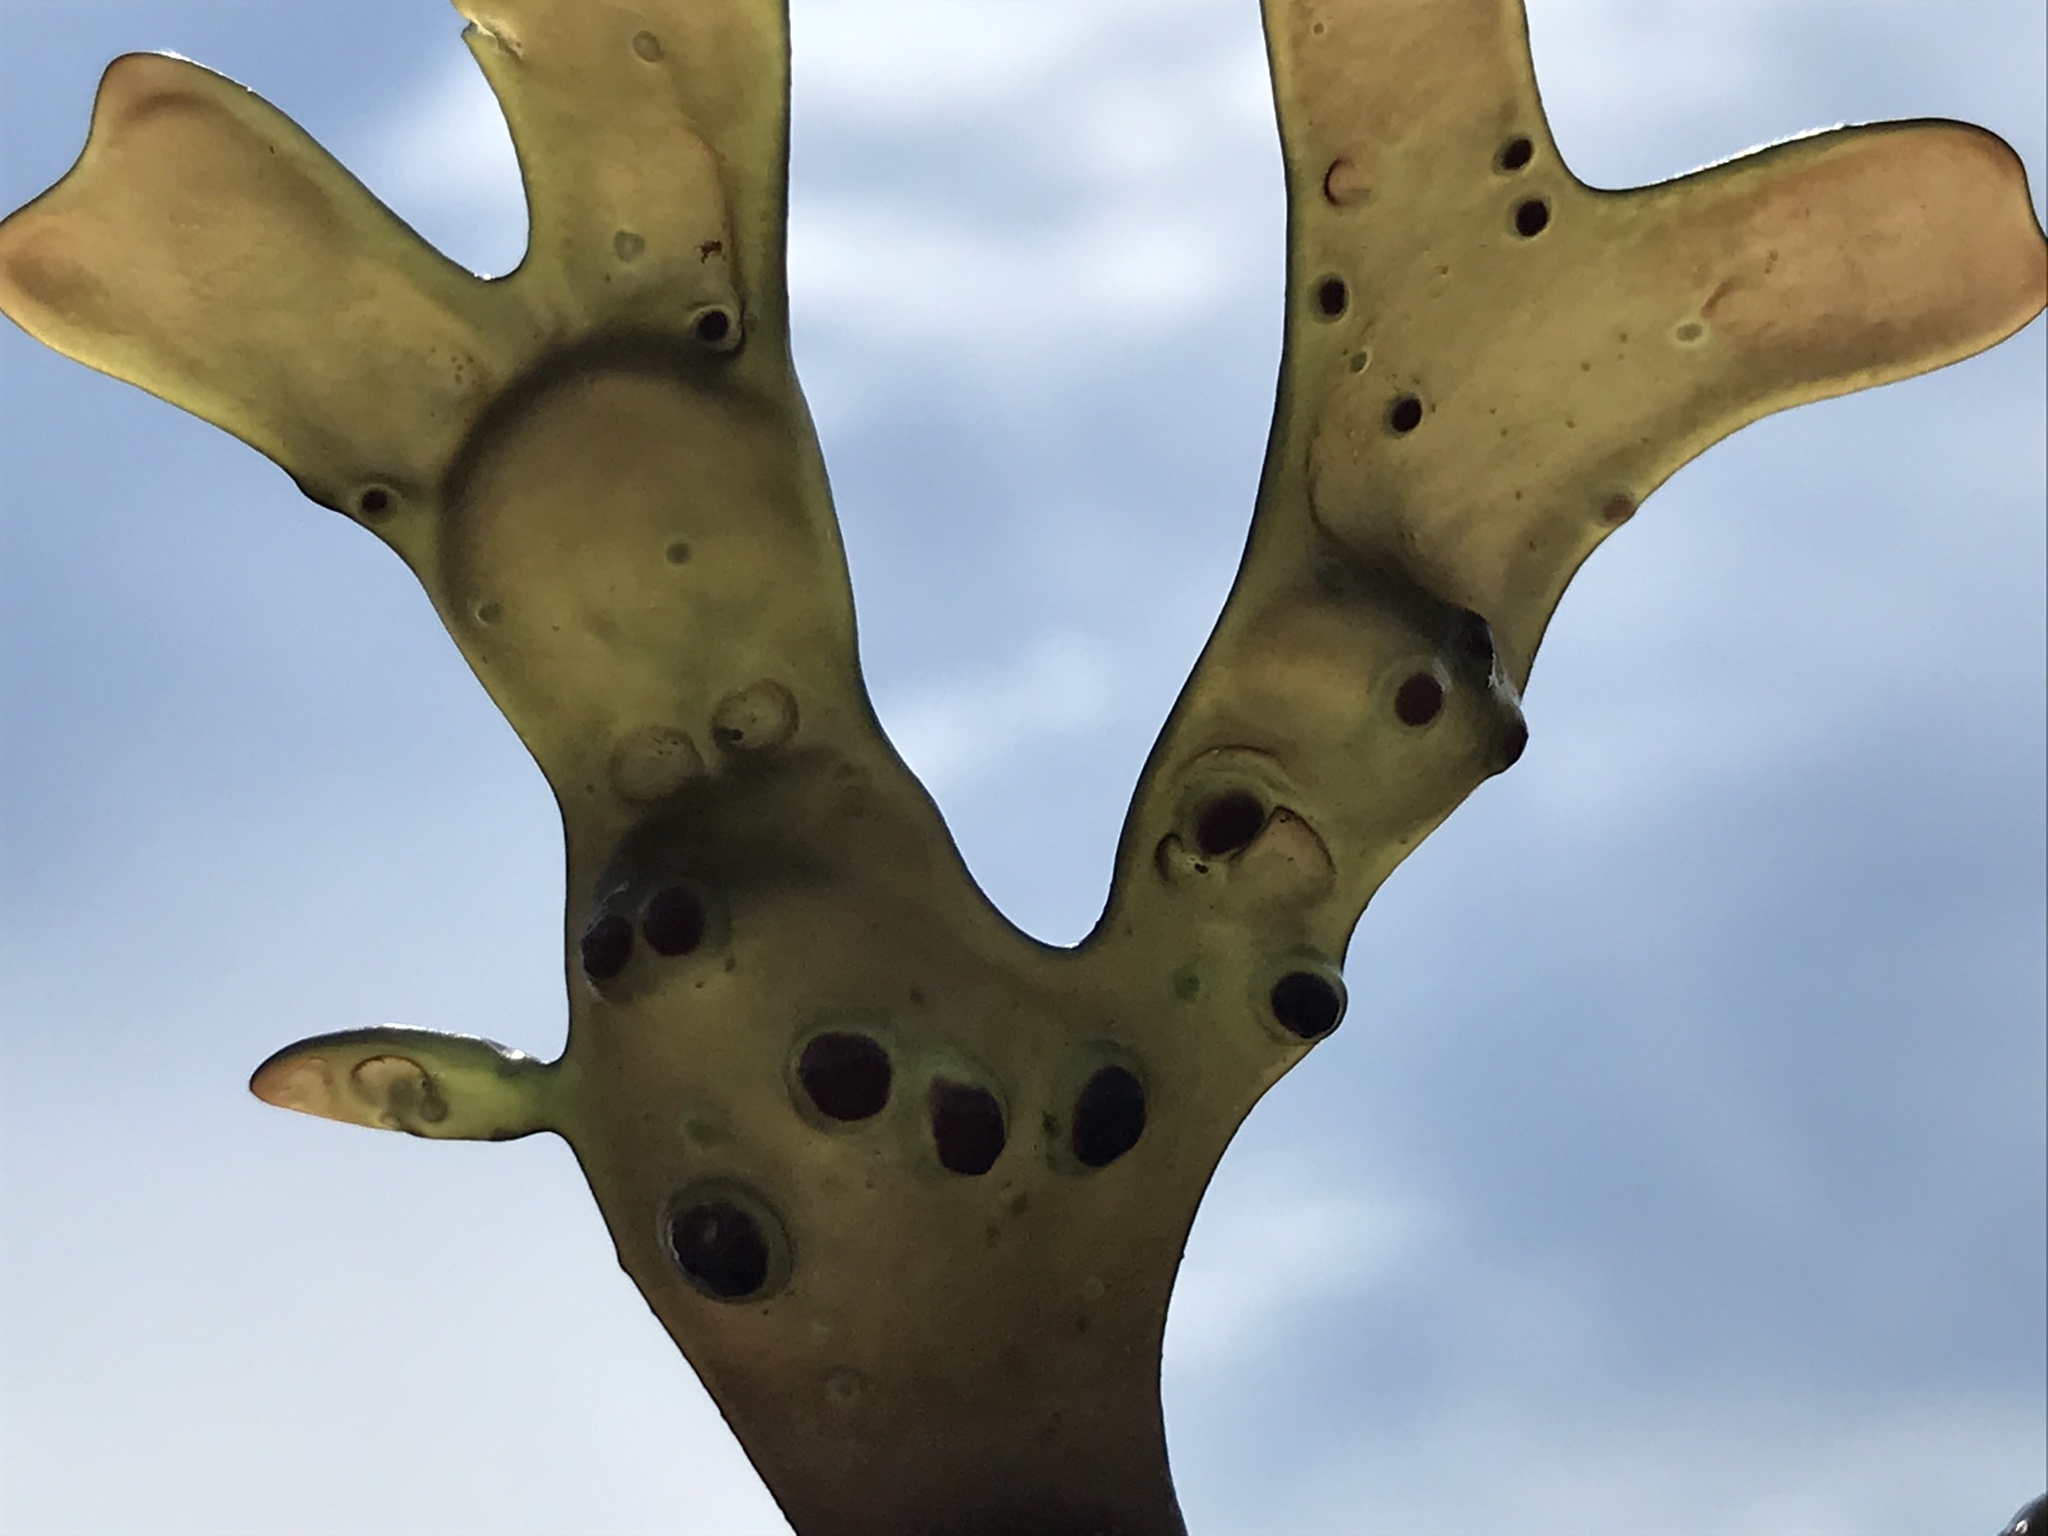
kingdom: Plantae
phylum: Rhodophyta
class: Florideophyceae
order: Gigartinales
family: Gigartinaceae
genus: Mazzaella
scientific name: Mazzaella
